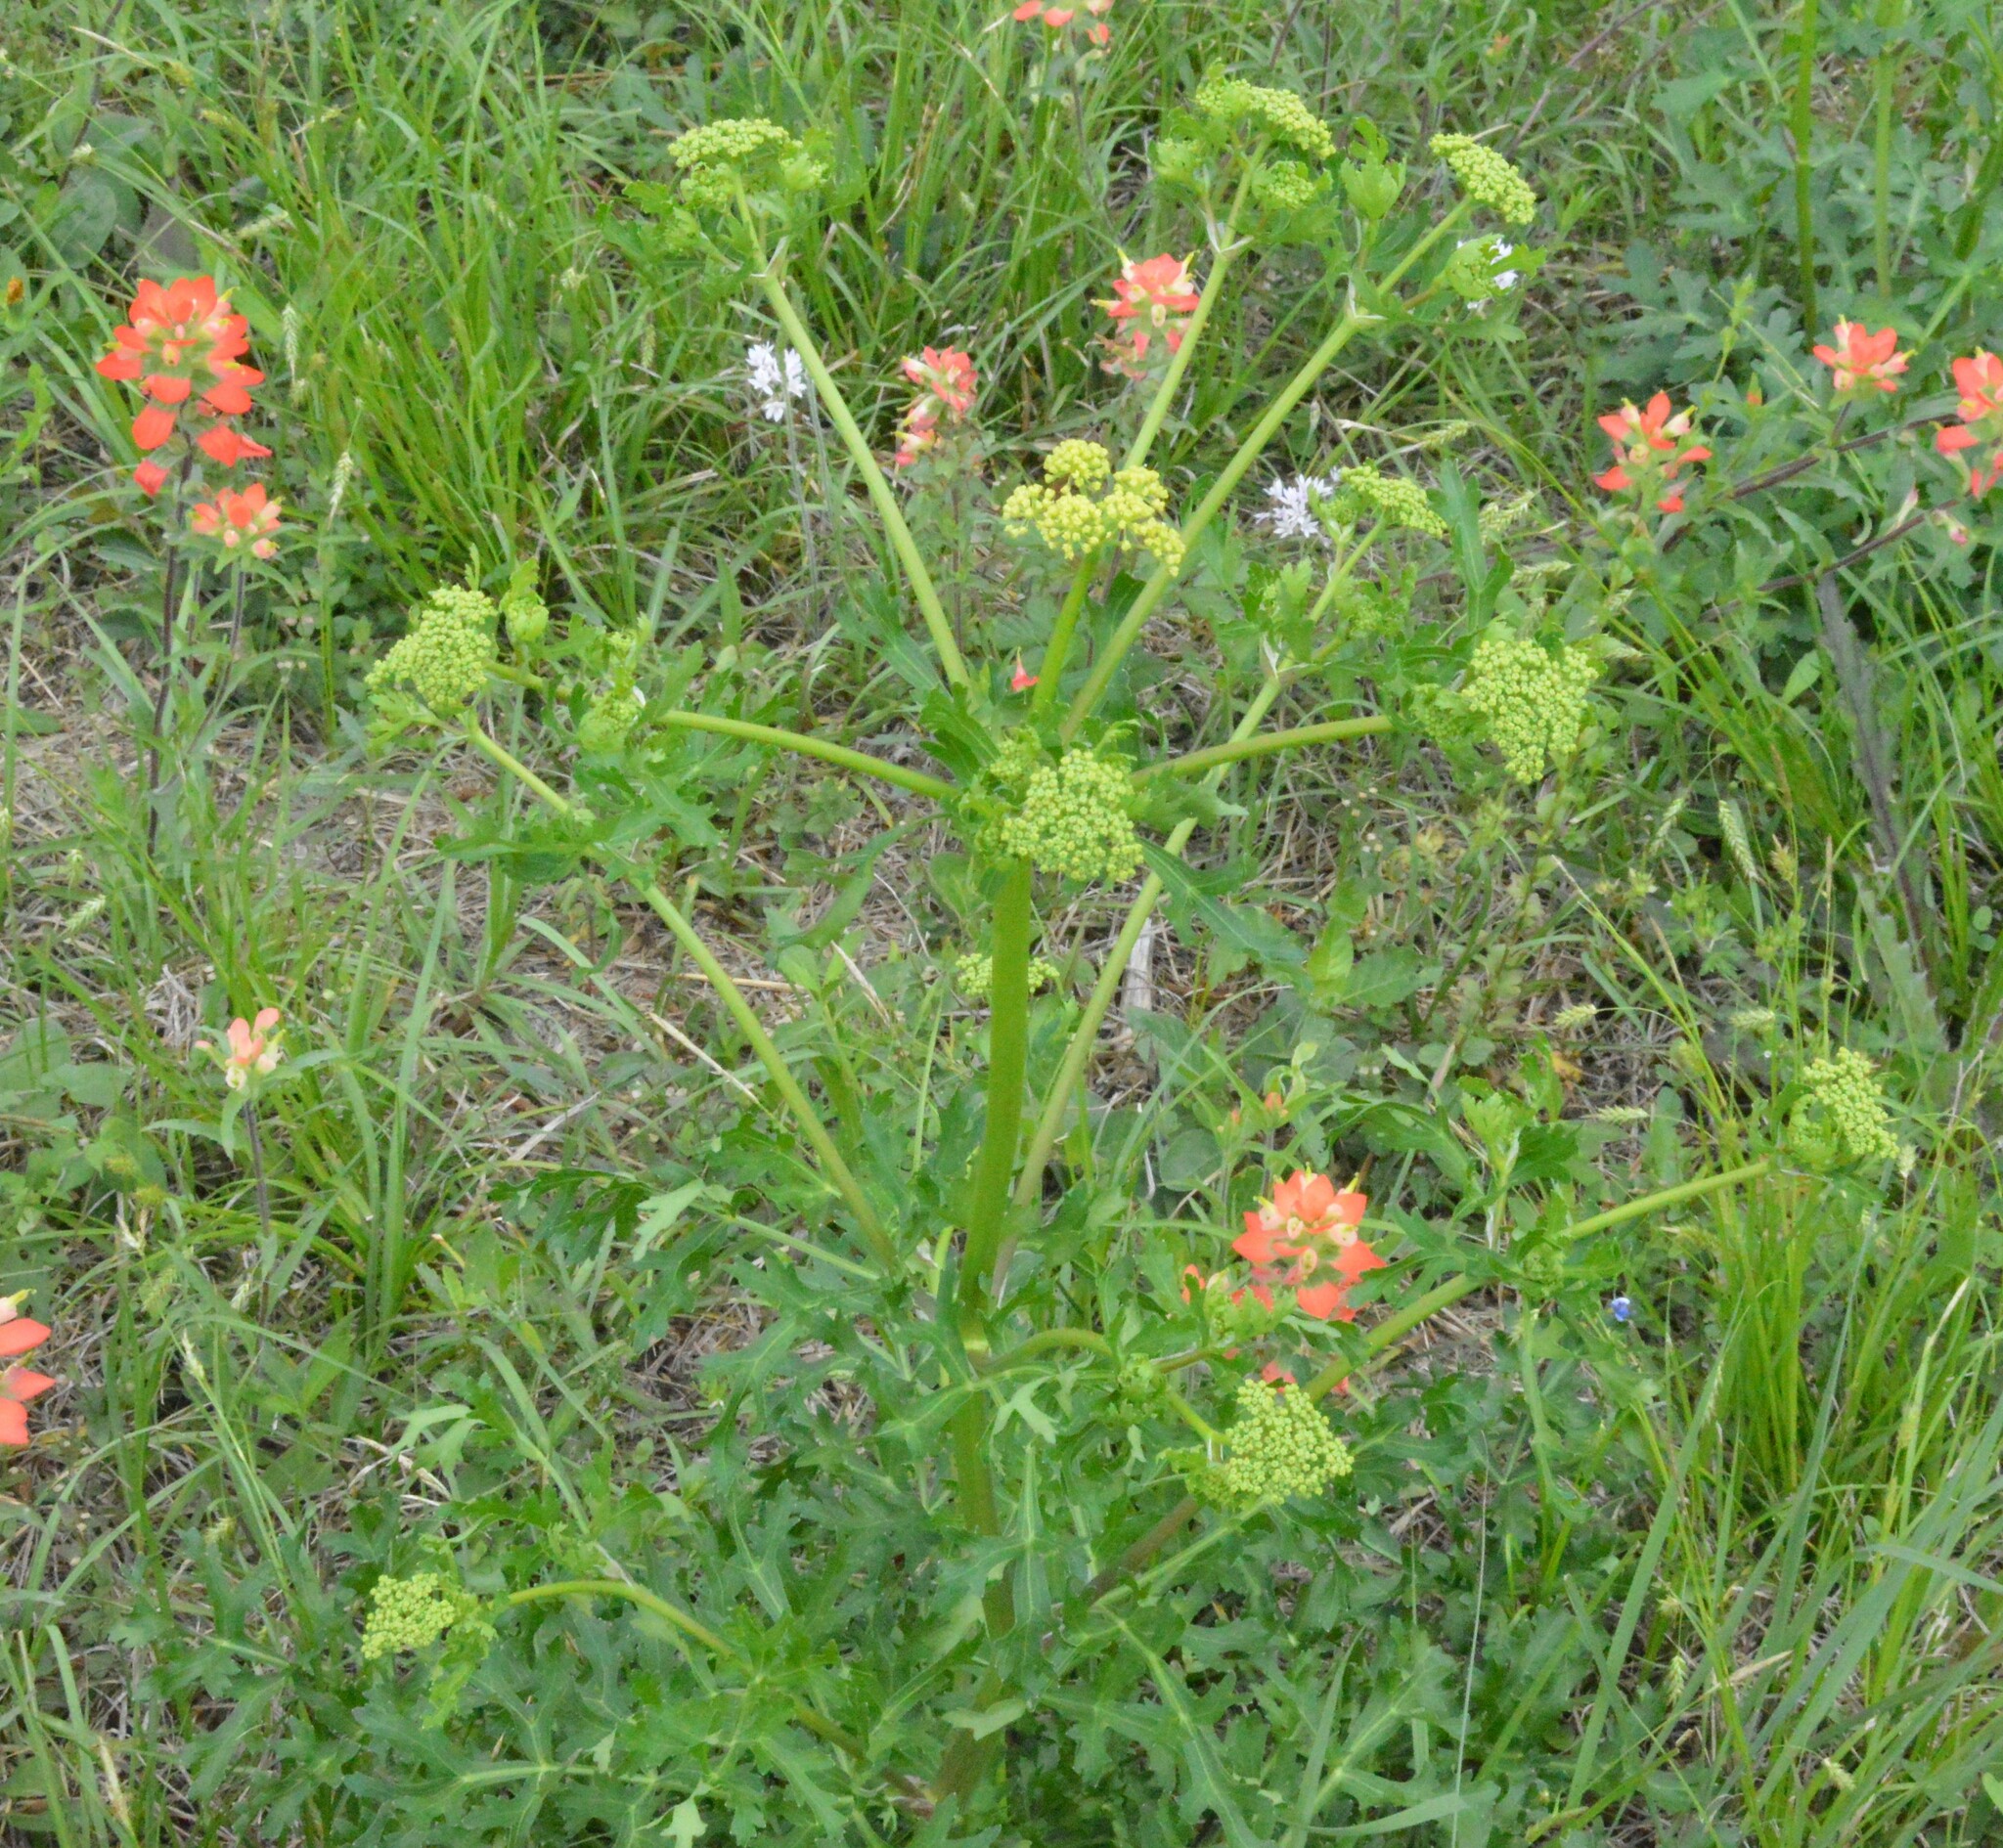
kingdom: Plantae
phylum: Tracheophyta
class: Magnoliopsida
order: Apiales
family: Apiaceae
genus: Polytaenia
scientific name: Polytaenia texana
